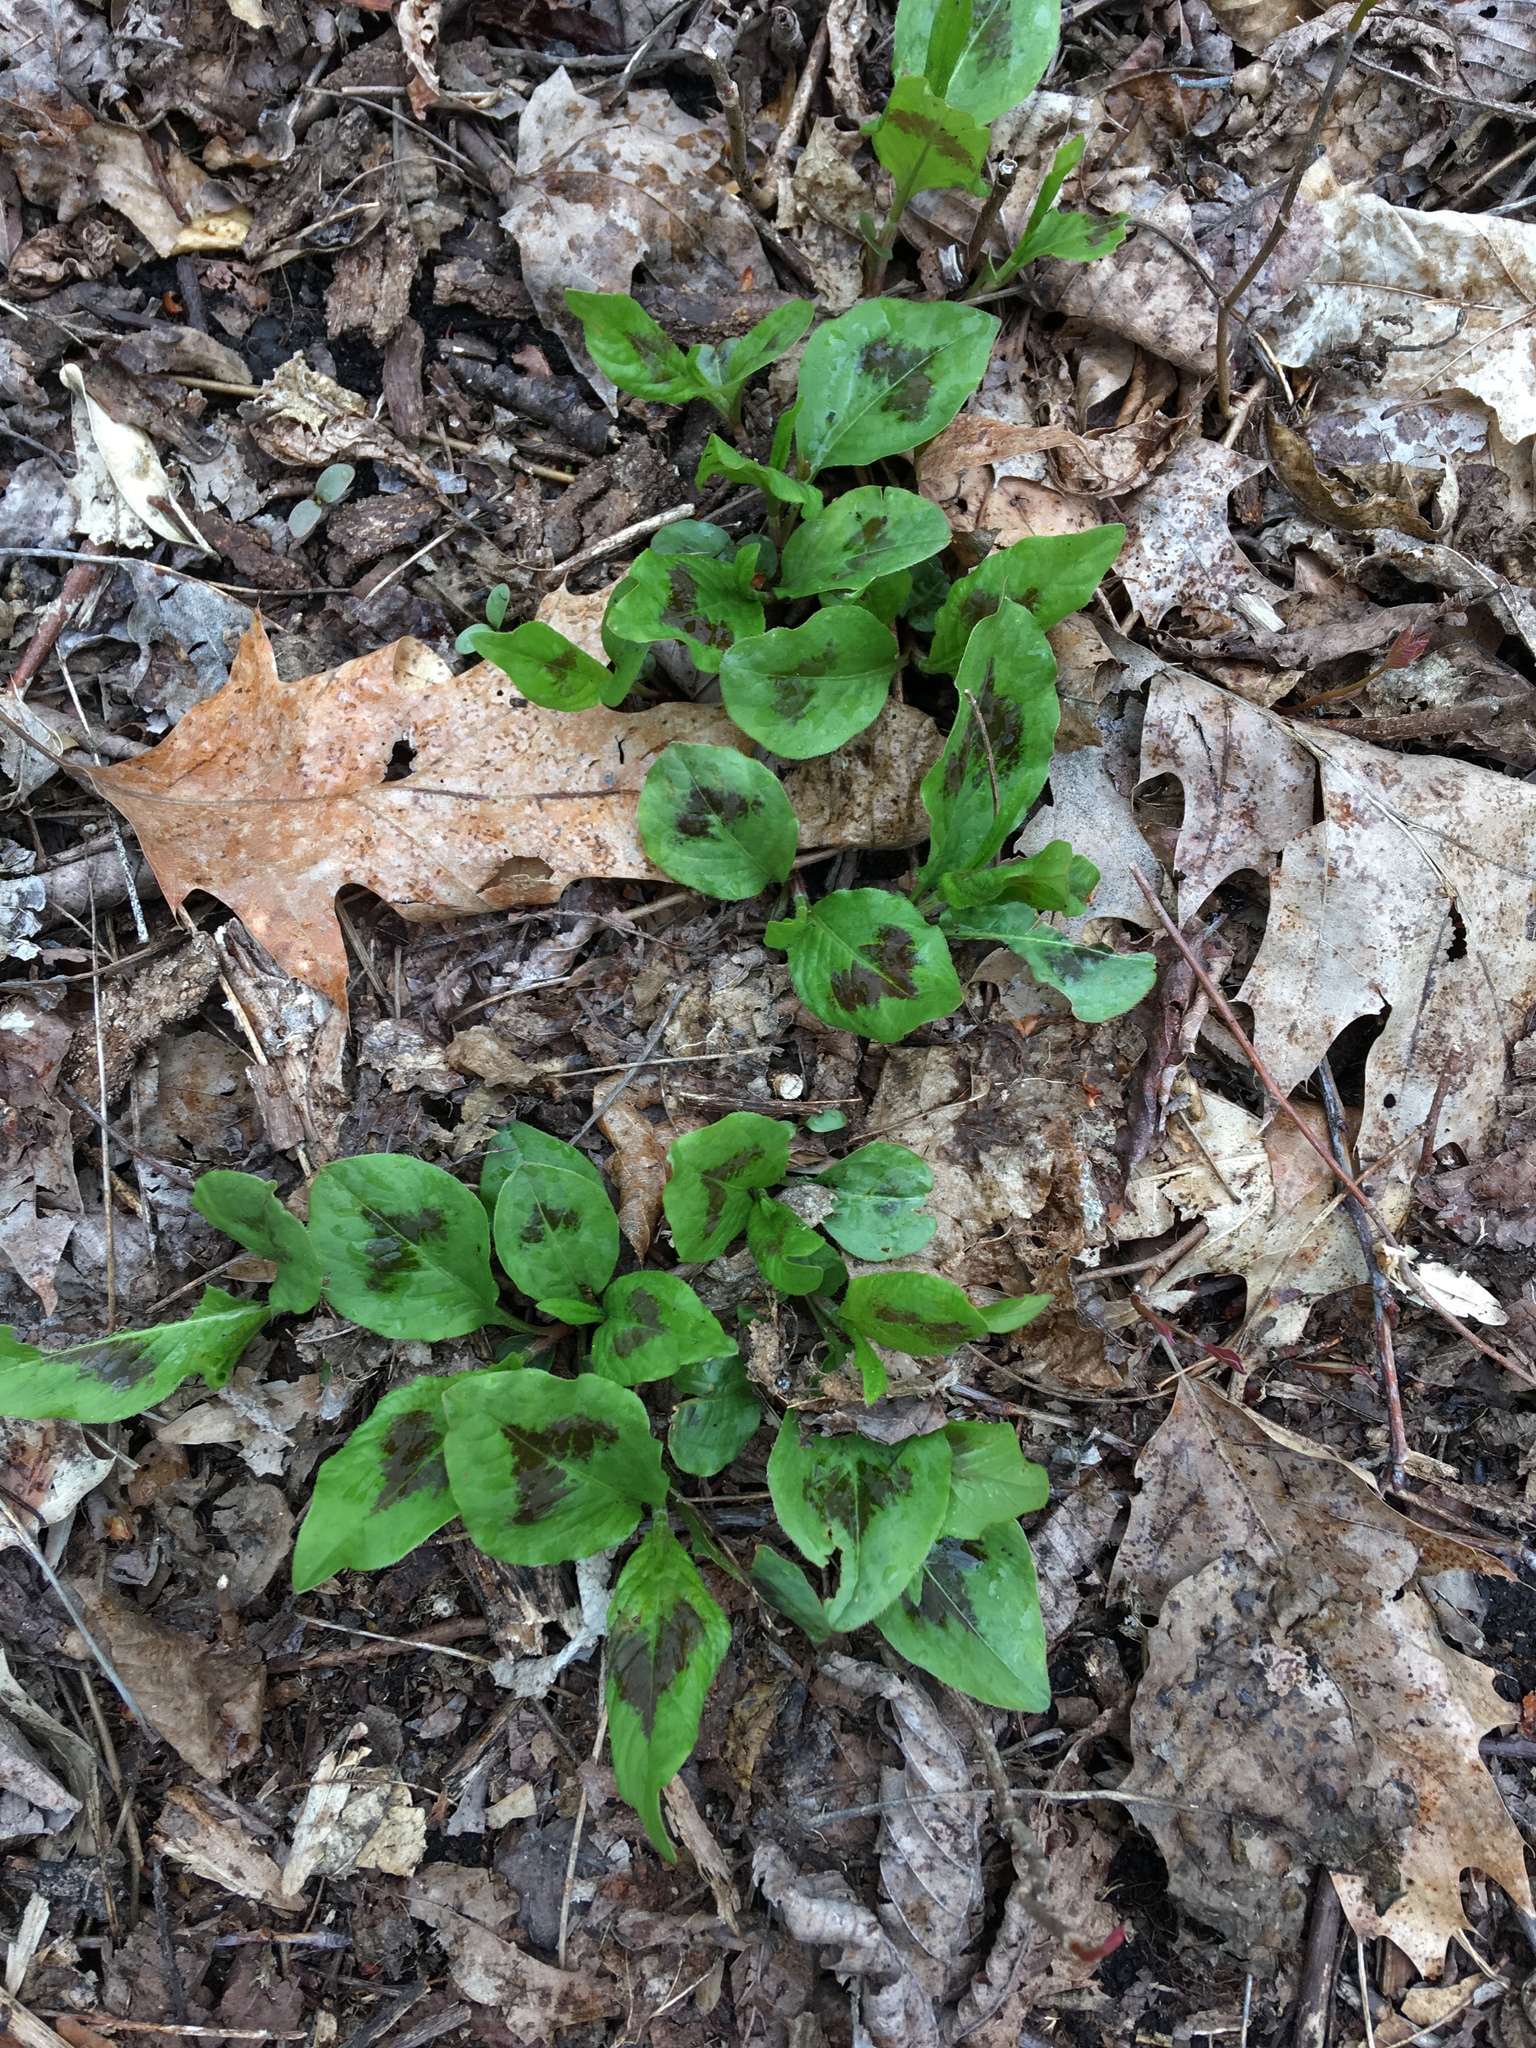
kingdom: Plantae
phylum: Tracheophyta
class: Magnoliopsida
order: Caryophyllales
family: Polygonaceae
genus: Persicaria
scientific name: Persicaria virginiana
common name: Jumpseed
